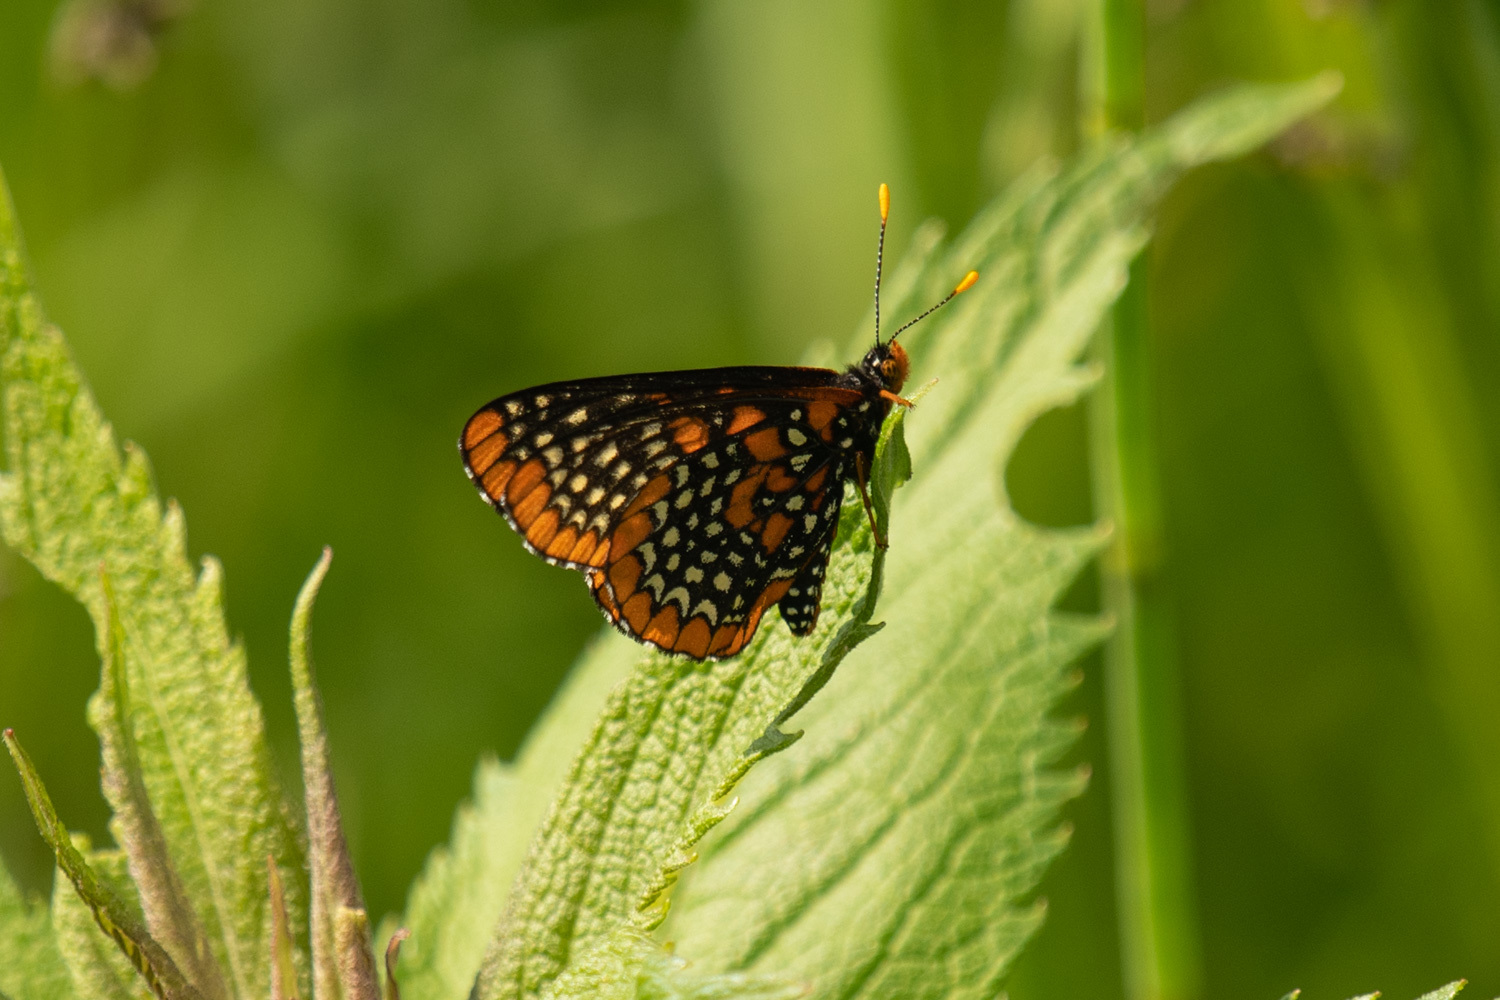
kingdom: Animalia
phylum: Arthropoda
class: Insecta
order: Lepidoptera
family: Nymphalidae
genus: Euphydryas
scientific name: Euphydryas phaeton
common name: Baltimore checkerspot
